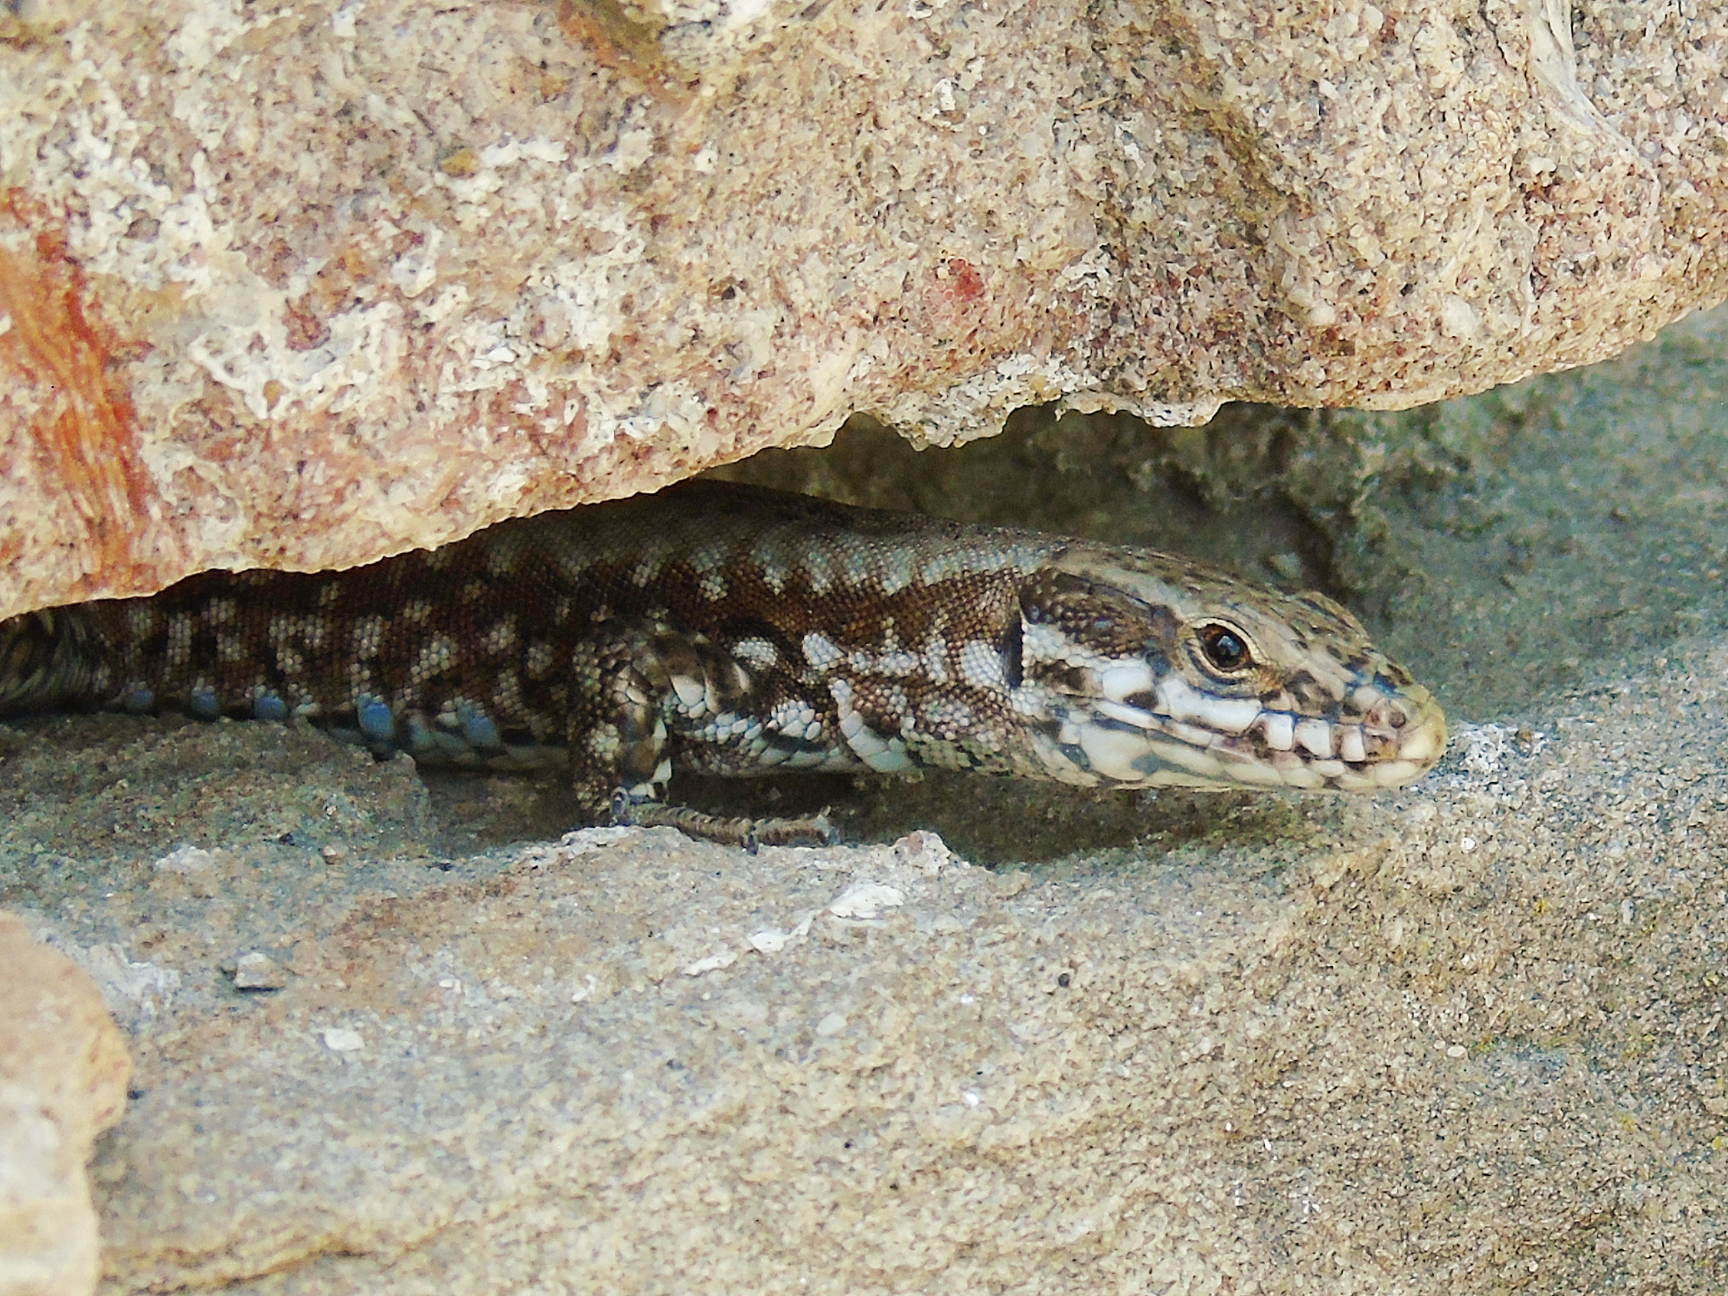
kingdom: Animalia
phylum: Chordata
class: Squamata
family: Lacertidae
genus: Podarcis
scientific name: Podarcis muralis
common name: Common wall lizard
